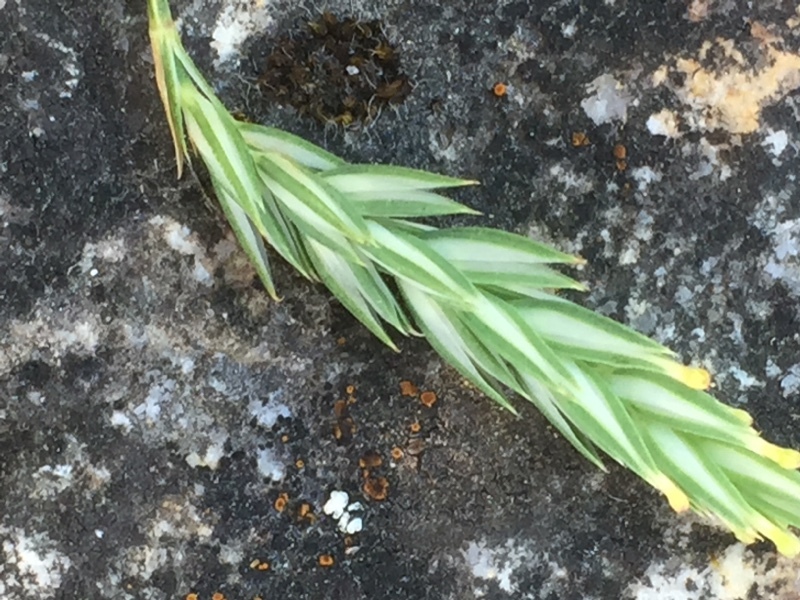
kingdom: Plantae
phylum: Tracheophyta
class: Magnoliopsida
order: Gentianales
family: Rubiaceae
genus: Crucianella
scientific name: Crucianella angustifolia
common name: Narrowleaf crucianella
